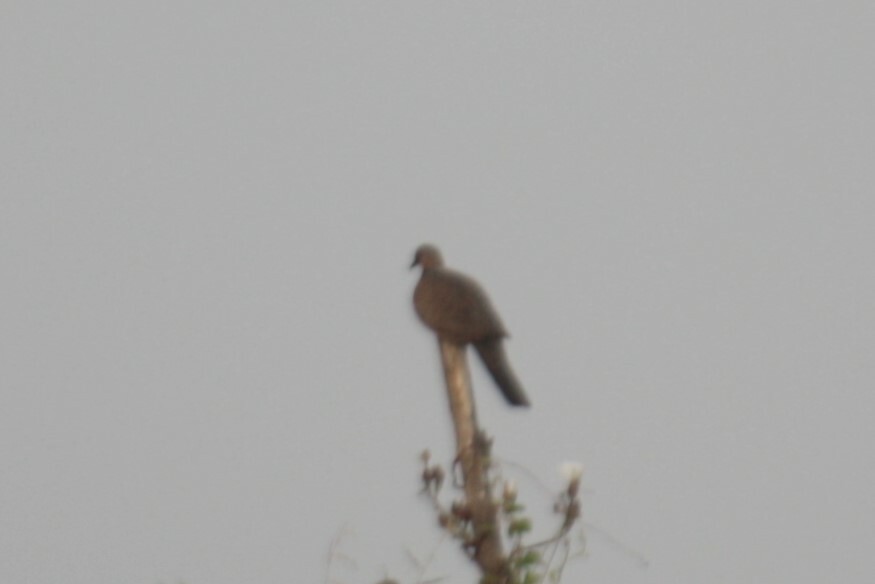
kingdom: Animalia
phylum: Chordata
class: Aves
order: Columbiformes
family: Columbidae
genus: Spilopelia
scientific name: Spilopelia chinensis
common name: Spotted dove
